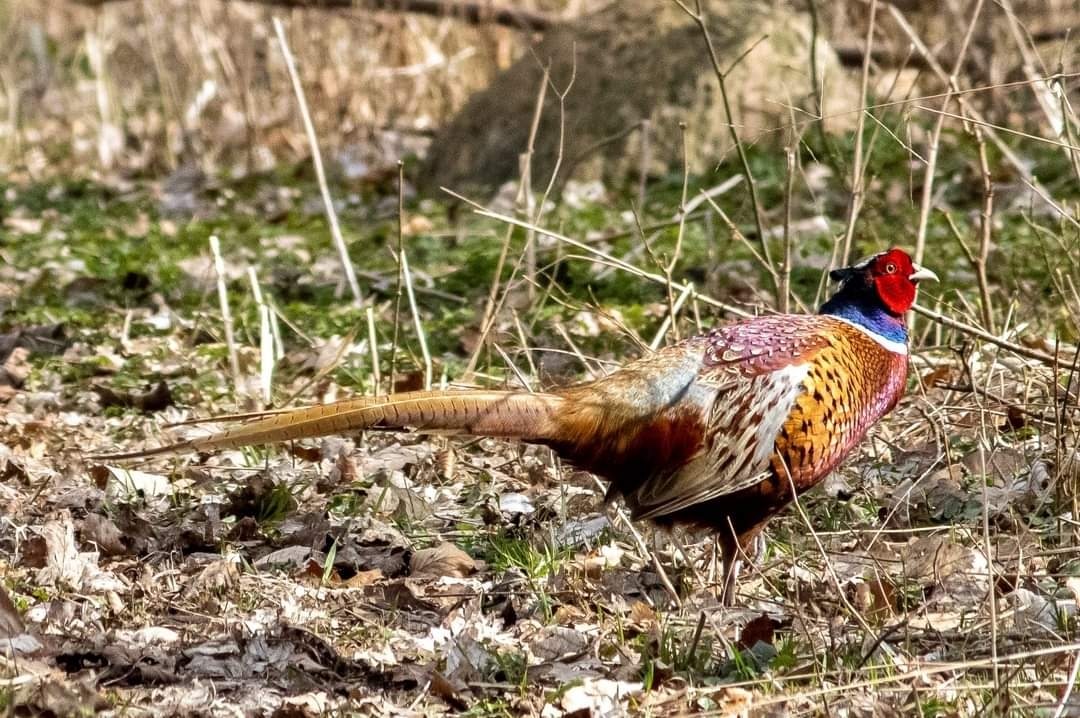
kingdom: Animalia
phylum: Chordata
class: Aves
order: Galliformes
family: Phasianidae
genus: Phasianus
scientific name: Phasianus colchicus
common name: Common pheasant
